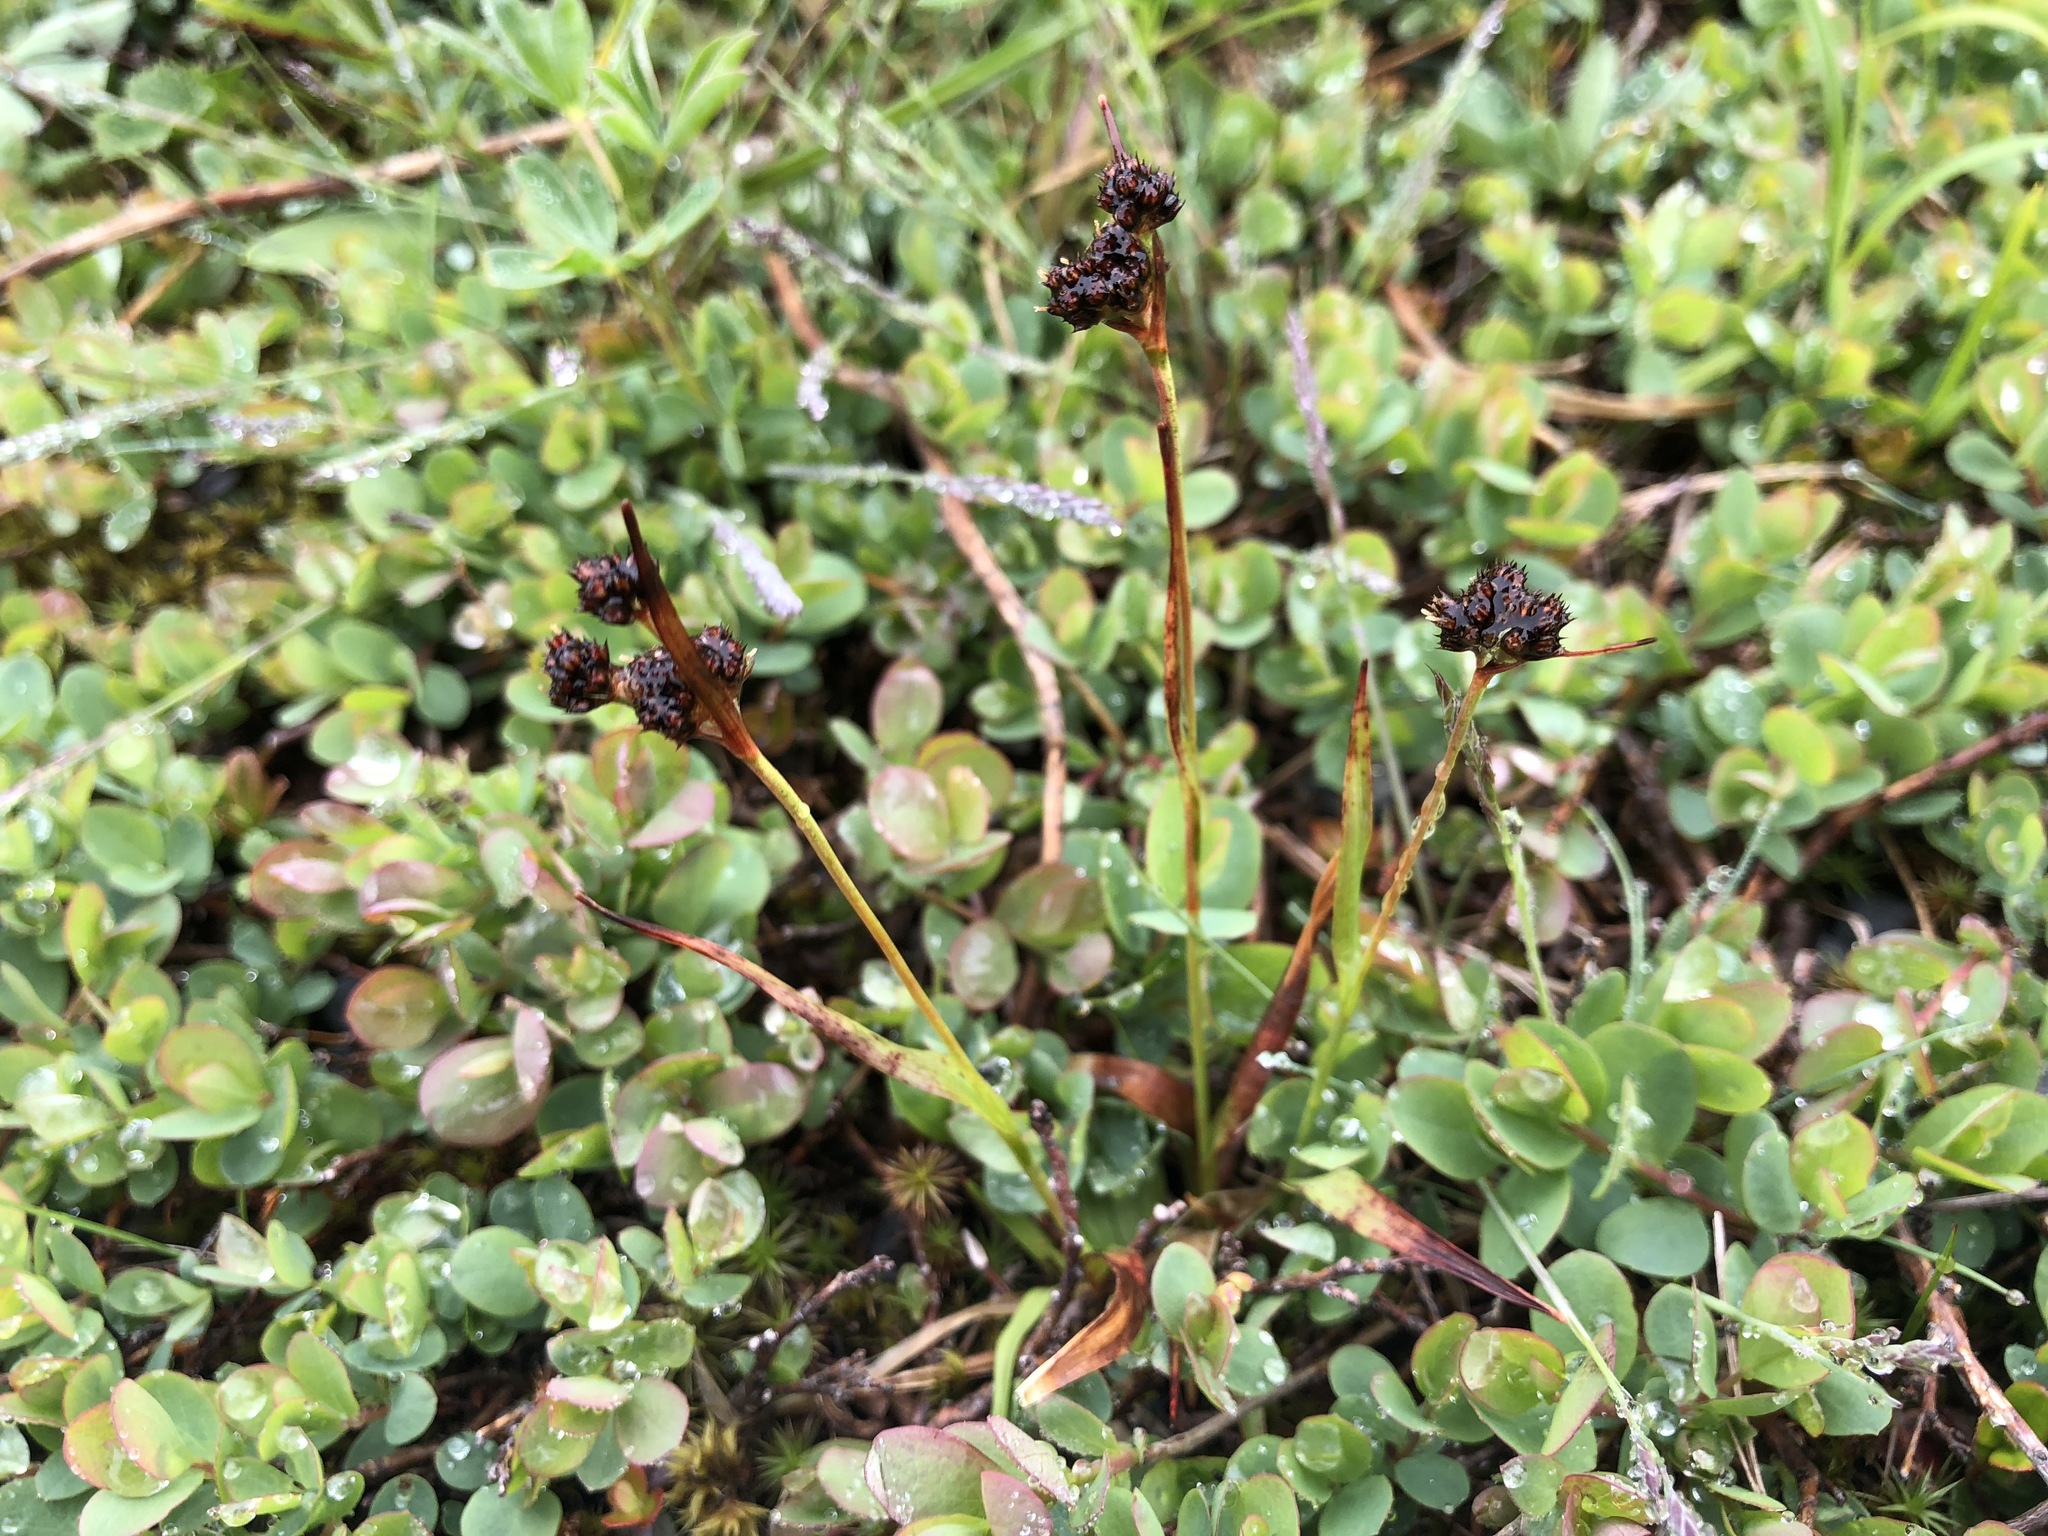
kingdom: Plantae
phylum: Tracheophyta
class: Liliopsida
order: Poales
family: Juncaceae
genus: Luzula
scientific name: Luzula multiflora
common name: Heath wood-rush
